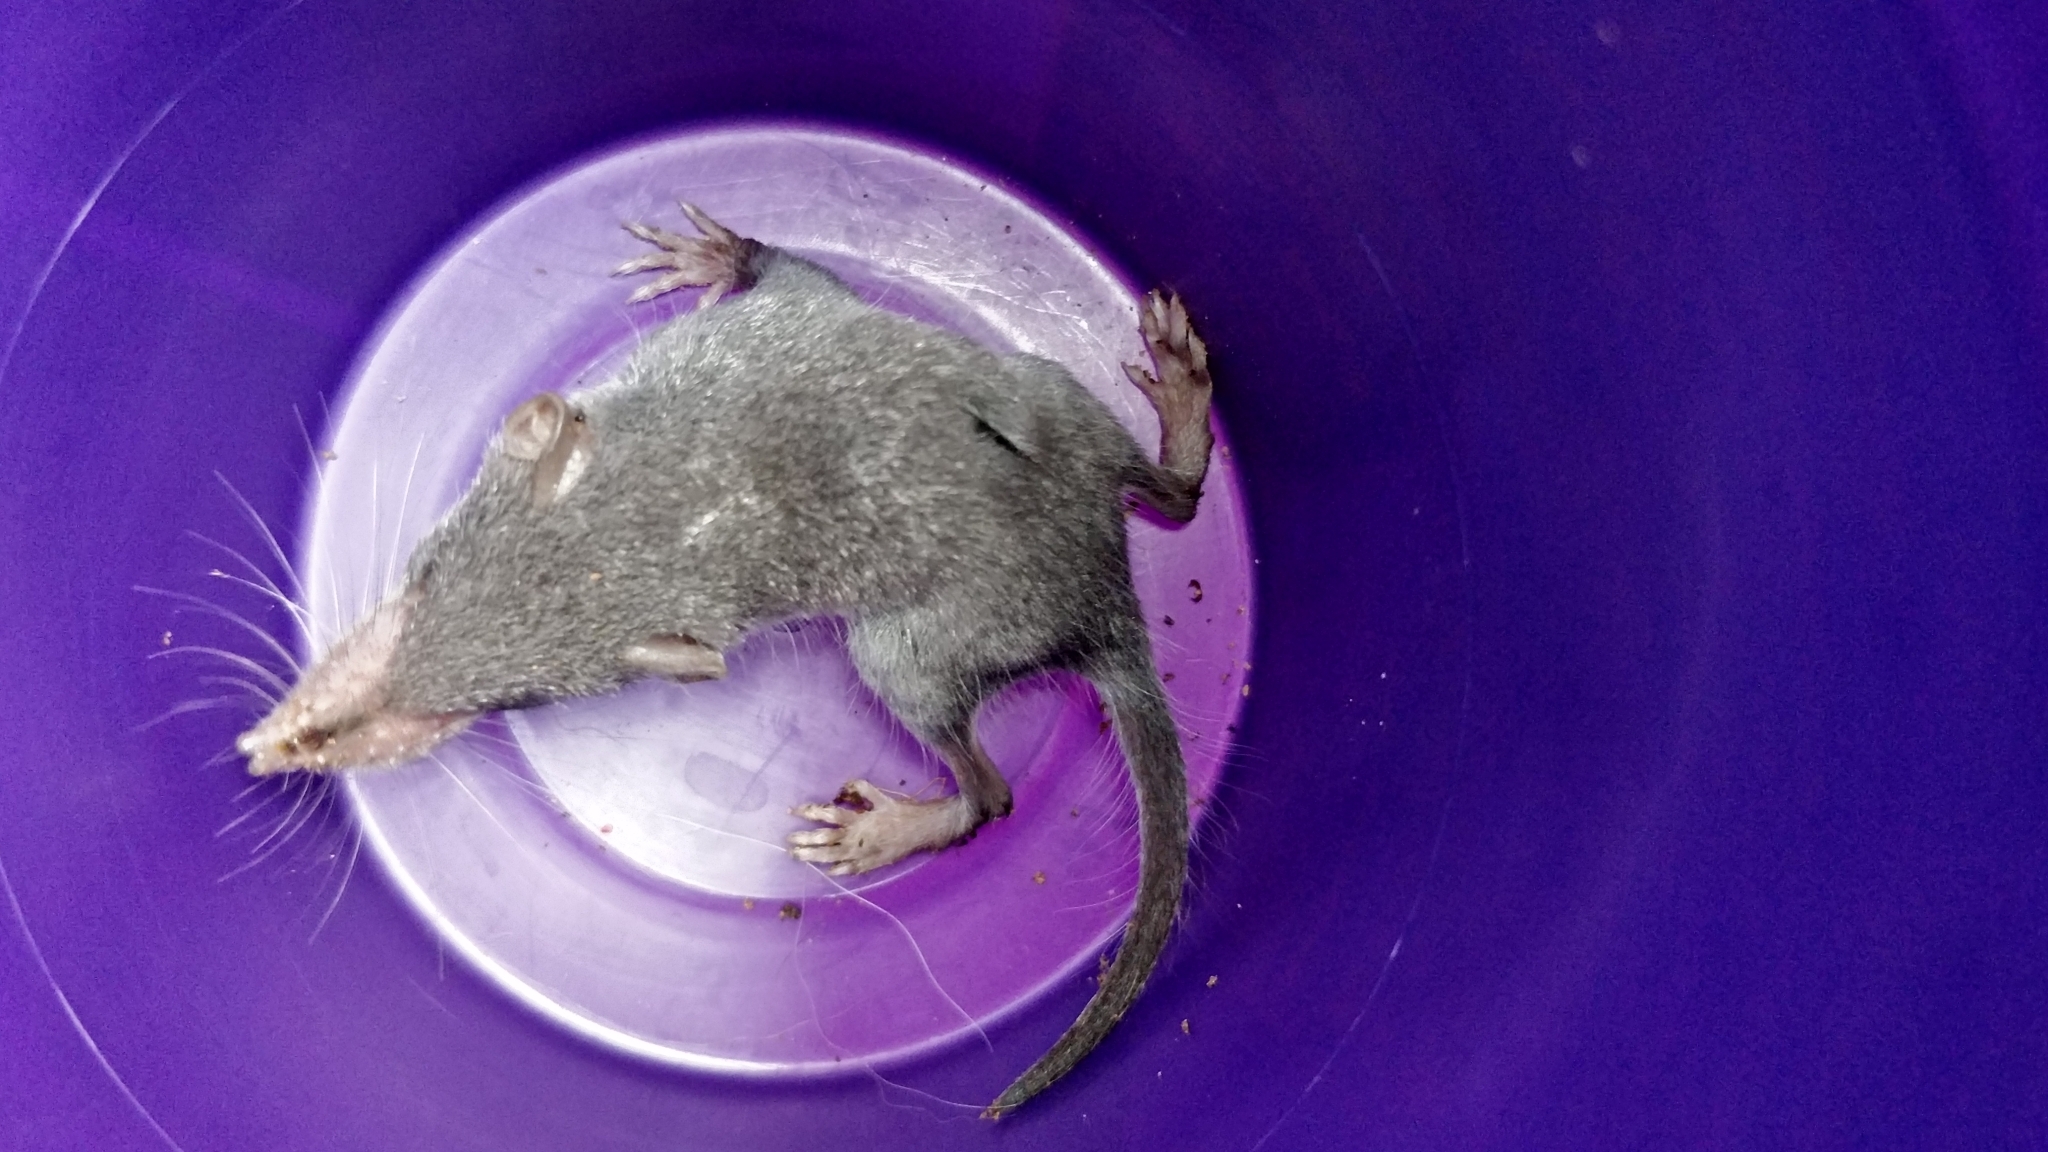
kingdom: Animalia
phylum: Chordata
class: Mammalia
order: Soricomorpha
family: Soricidae
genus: Suncus
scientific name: Suncus murinus
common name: Asian house shrew
